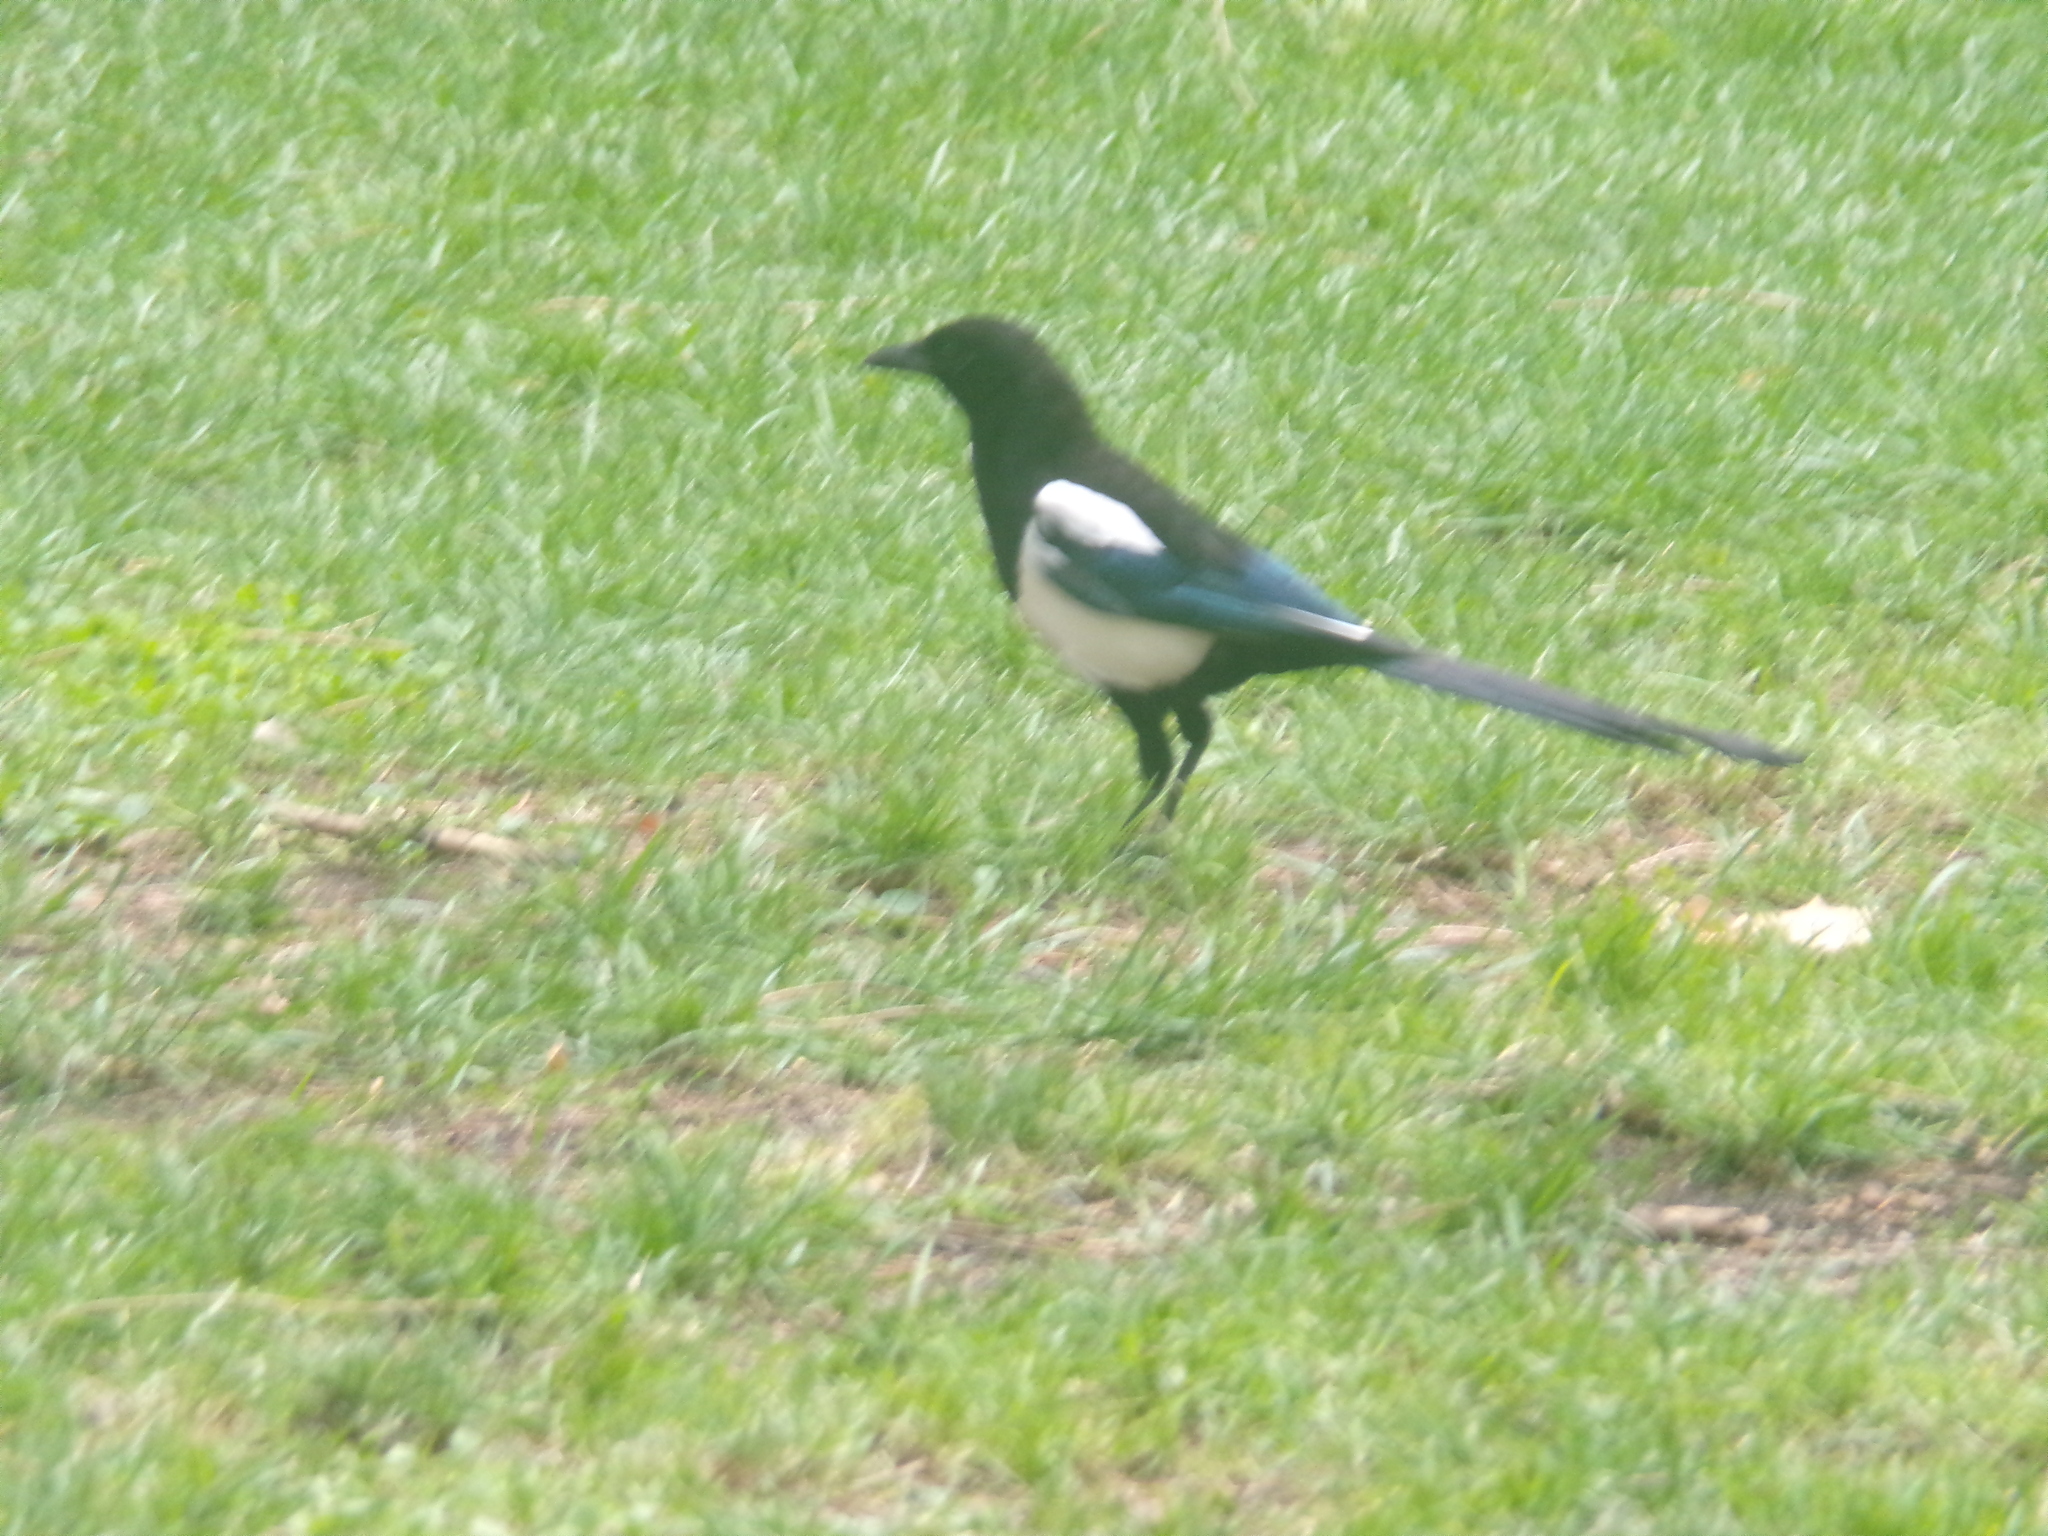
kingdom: Animalia
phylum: Chordata
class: Aves
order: Passeriformes
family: Corvidae
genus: Pica
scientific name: Pica pica
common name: Eurasian magpie
